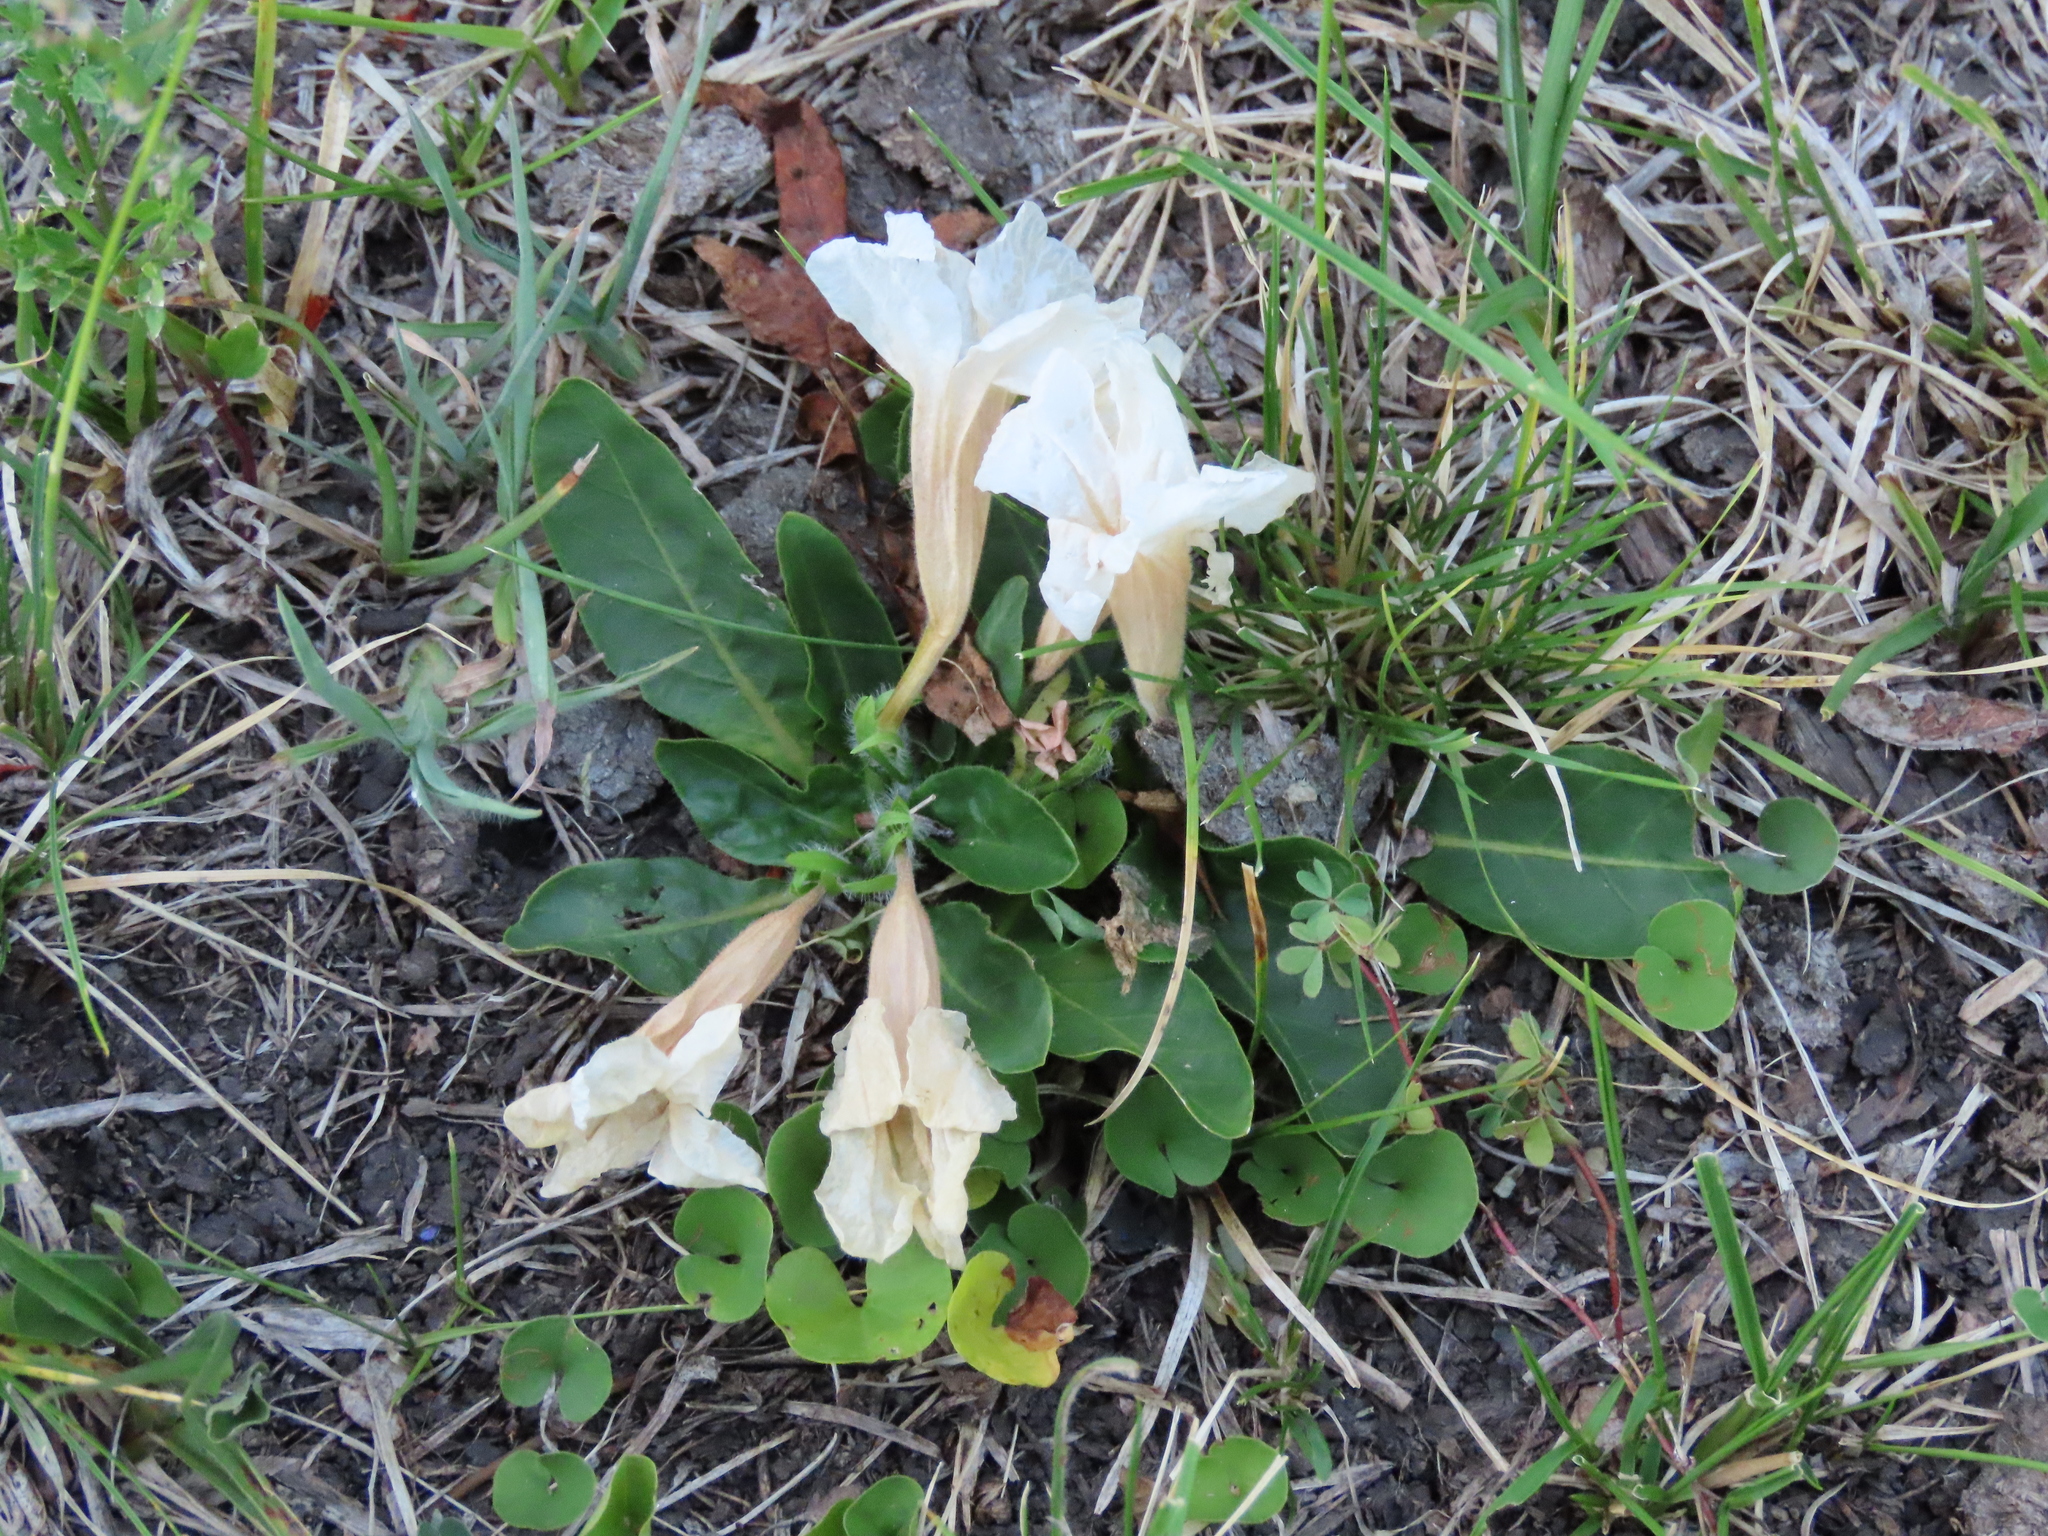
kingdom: Plantae
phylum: Tracheophyta
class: Magnoliopsida
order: Lamiales
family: Acanthaceae
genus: Ruellia
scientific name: Ruellia morongii
